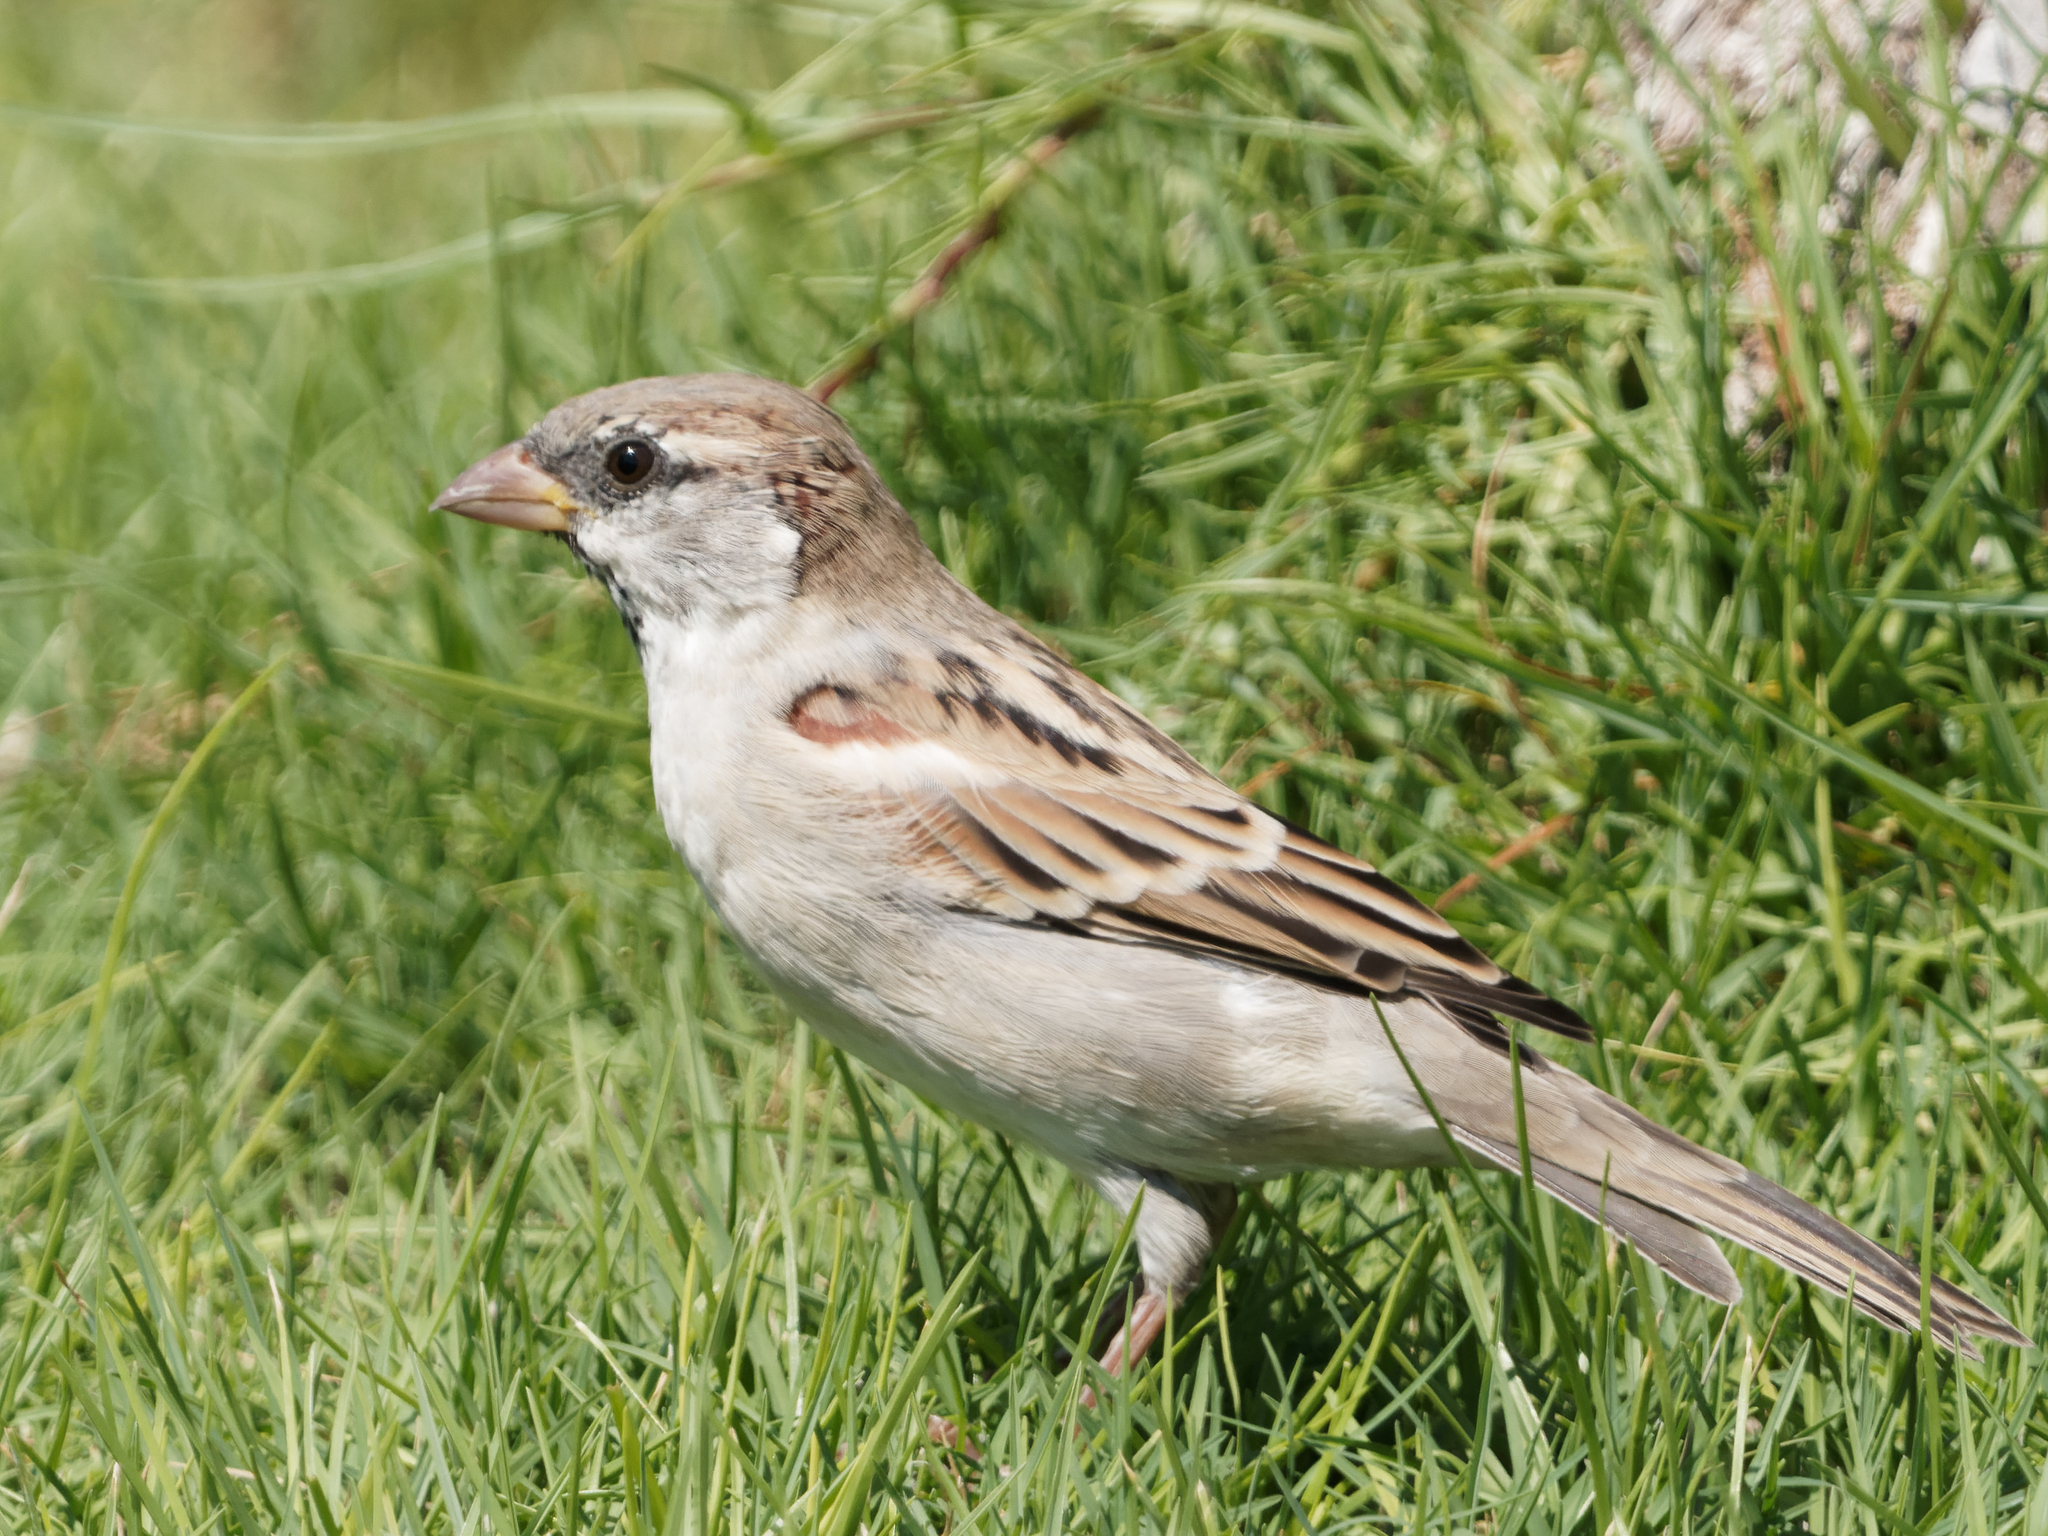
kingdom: Animalia
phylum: Chordata
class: Aves
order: Passeriformes
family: Passeridae
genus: Passer
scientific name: Passer domesticus
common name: House sparrow
